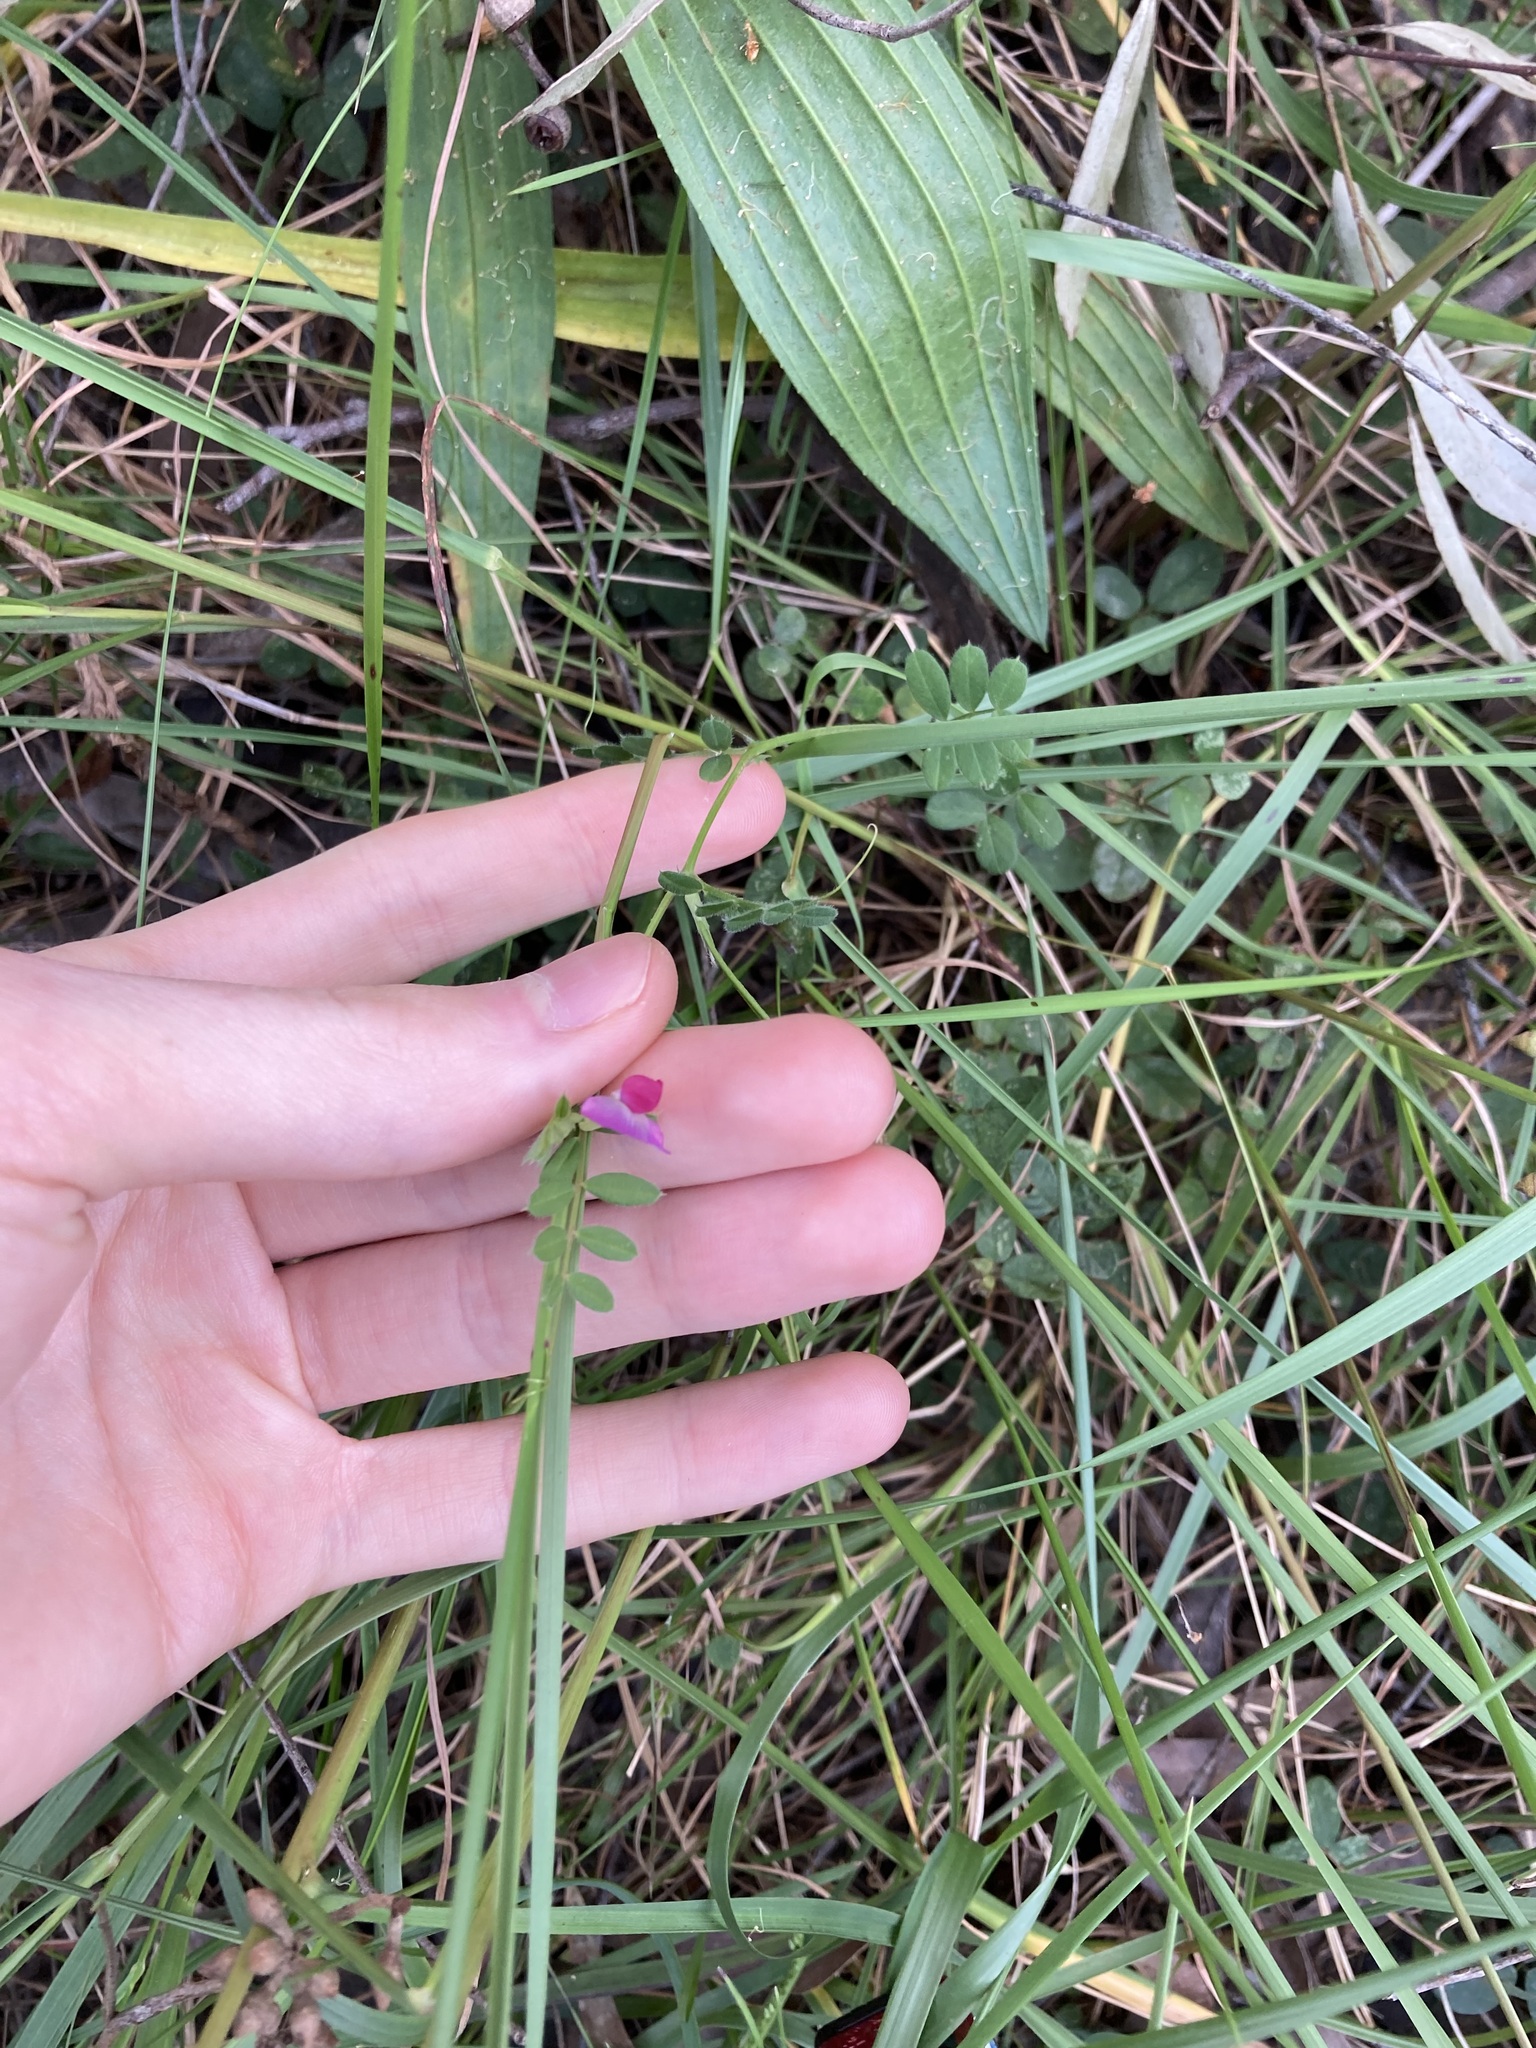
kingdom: Plantae
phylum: Tracheophyta
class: Magnoliopsida
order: Fabales
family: Fabaceae
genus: Vicia
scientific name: Vicia sativa
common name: Garden vetch
